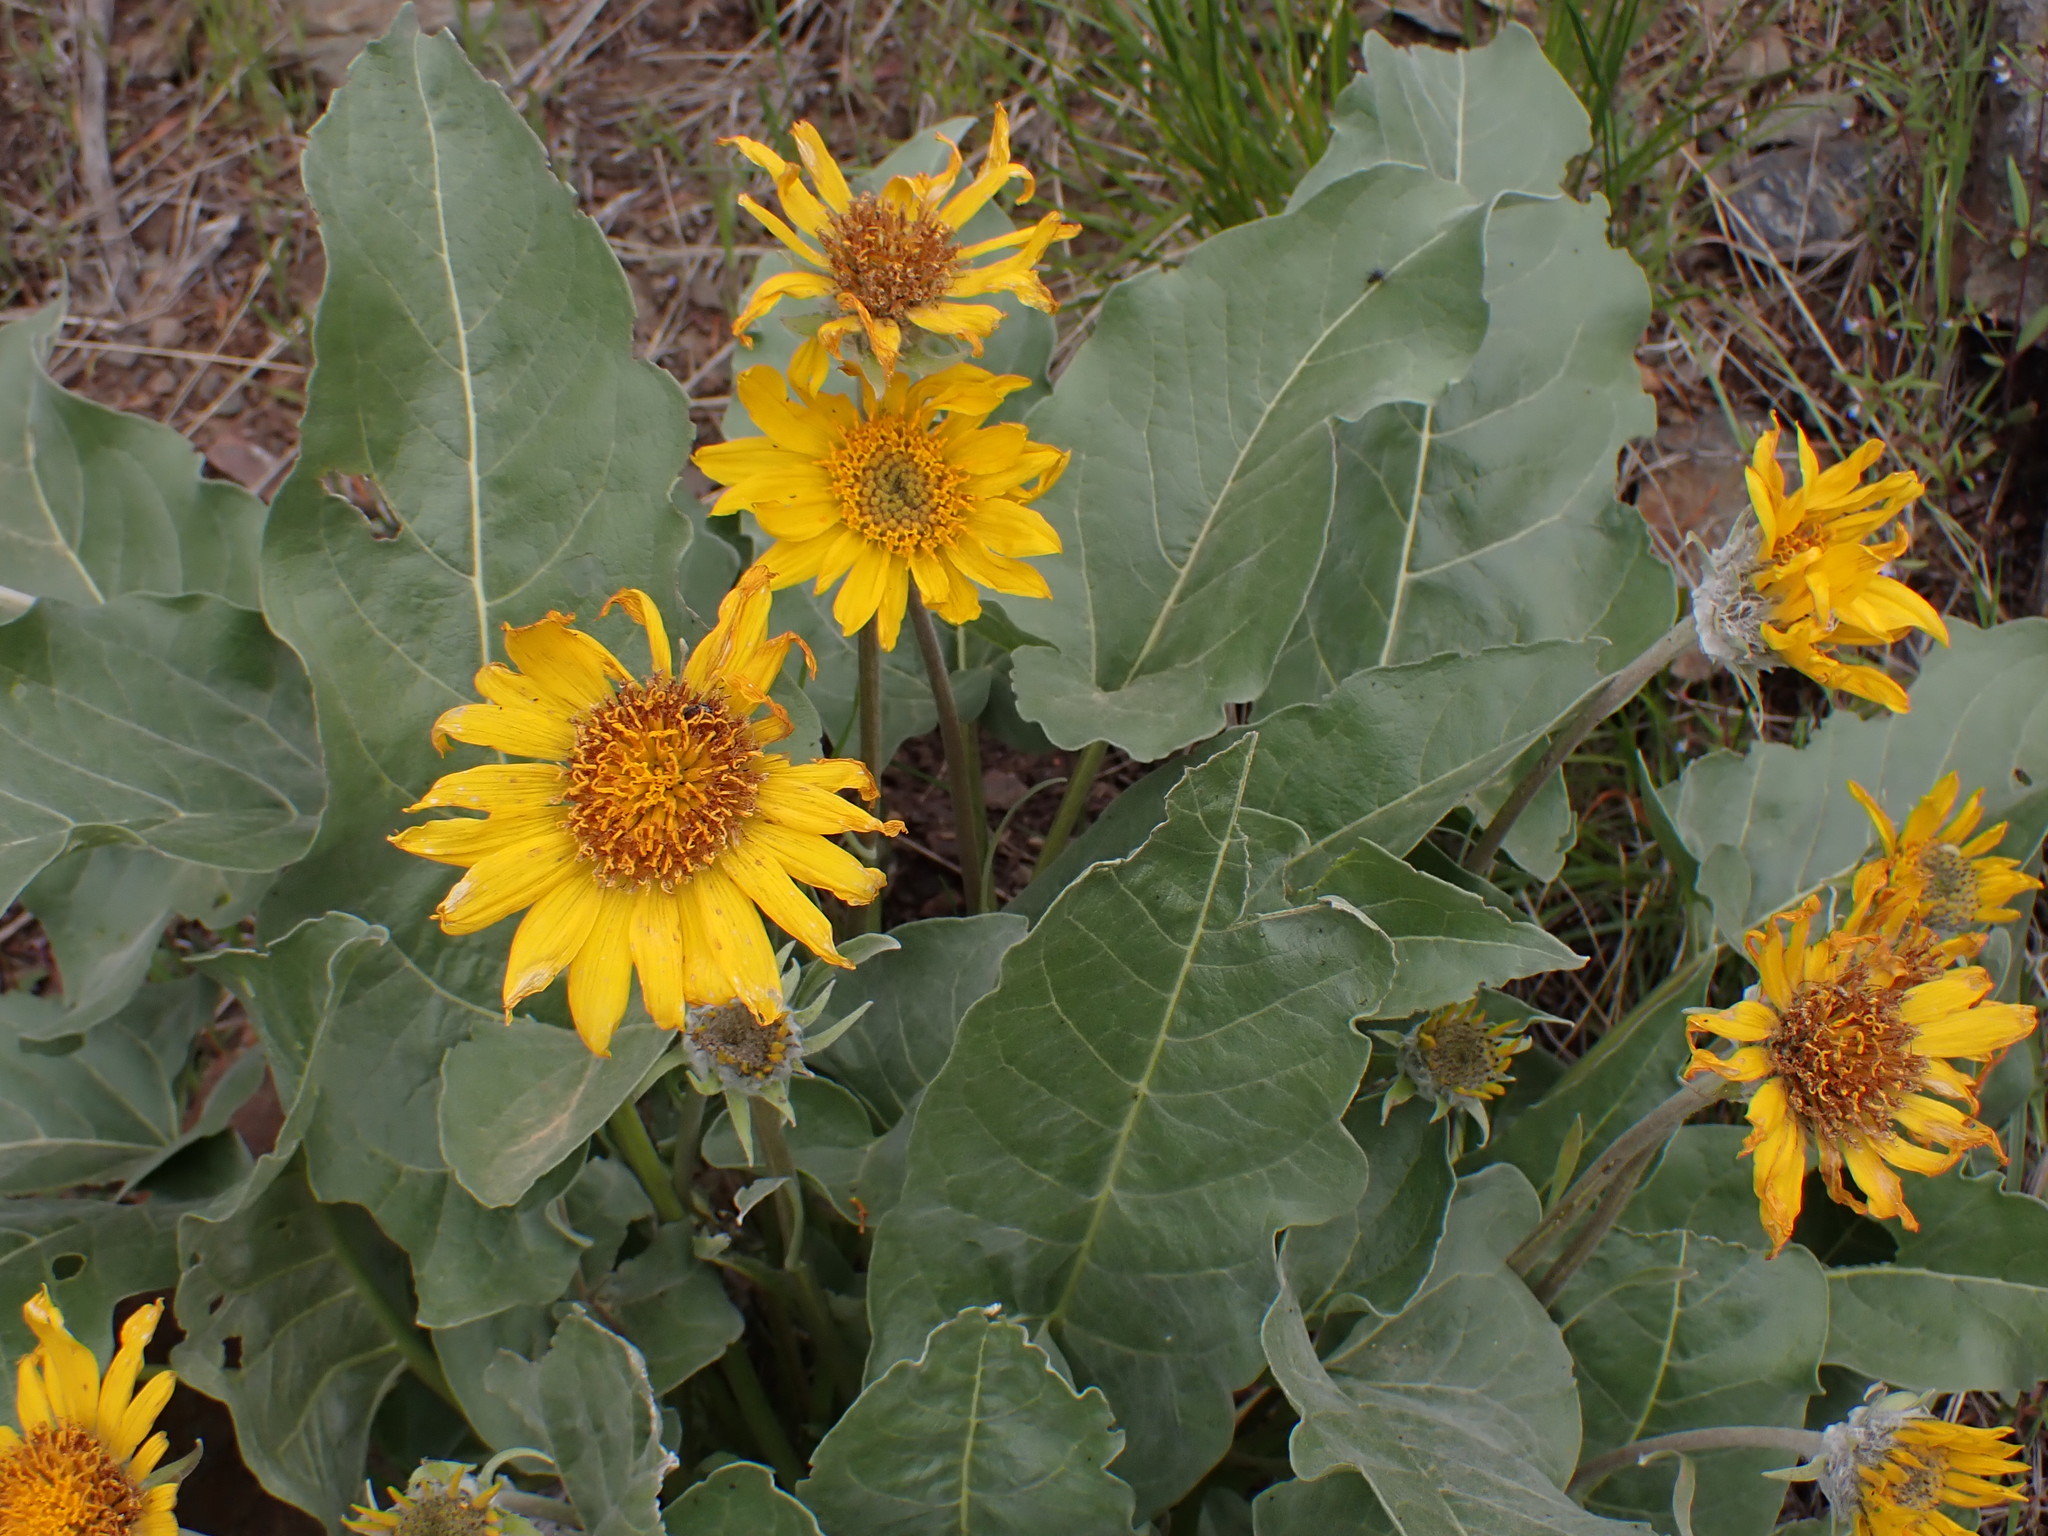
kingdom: Plantae
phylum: Tracheophyta
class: Magnoliopsida
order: Asterales
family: Asteraceae
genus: Wyethia
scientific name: Wyethia sagittata
